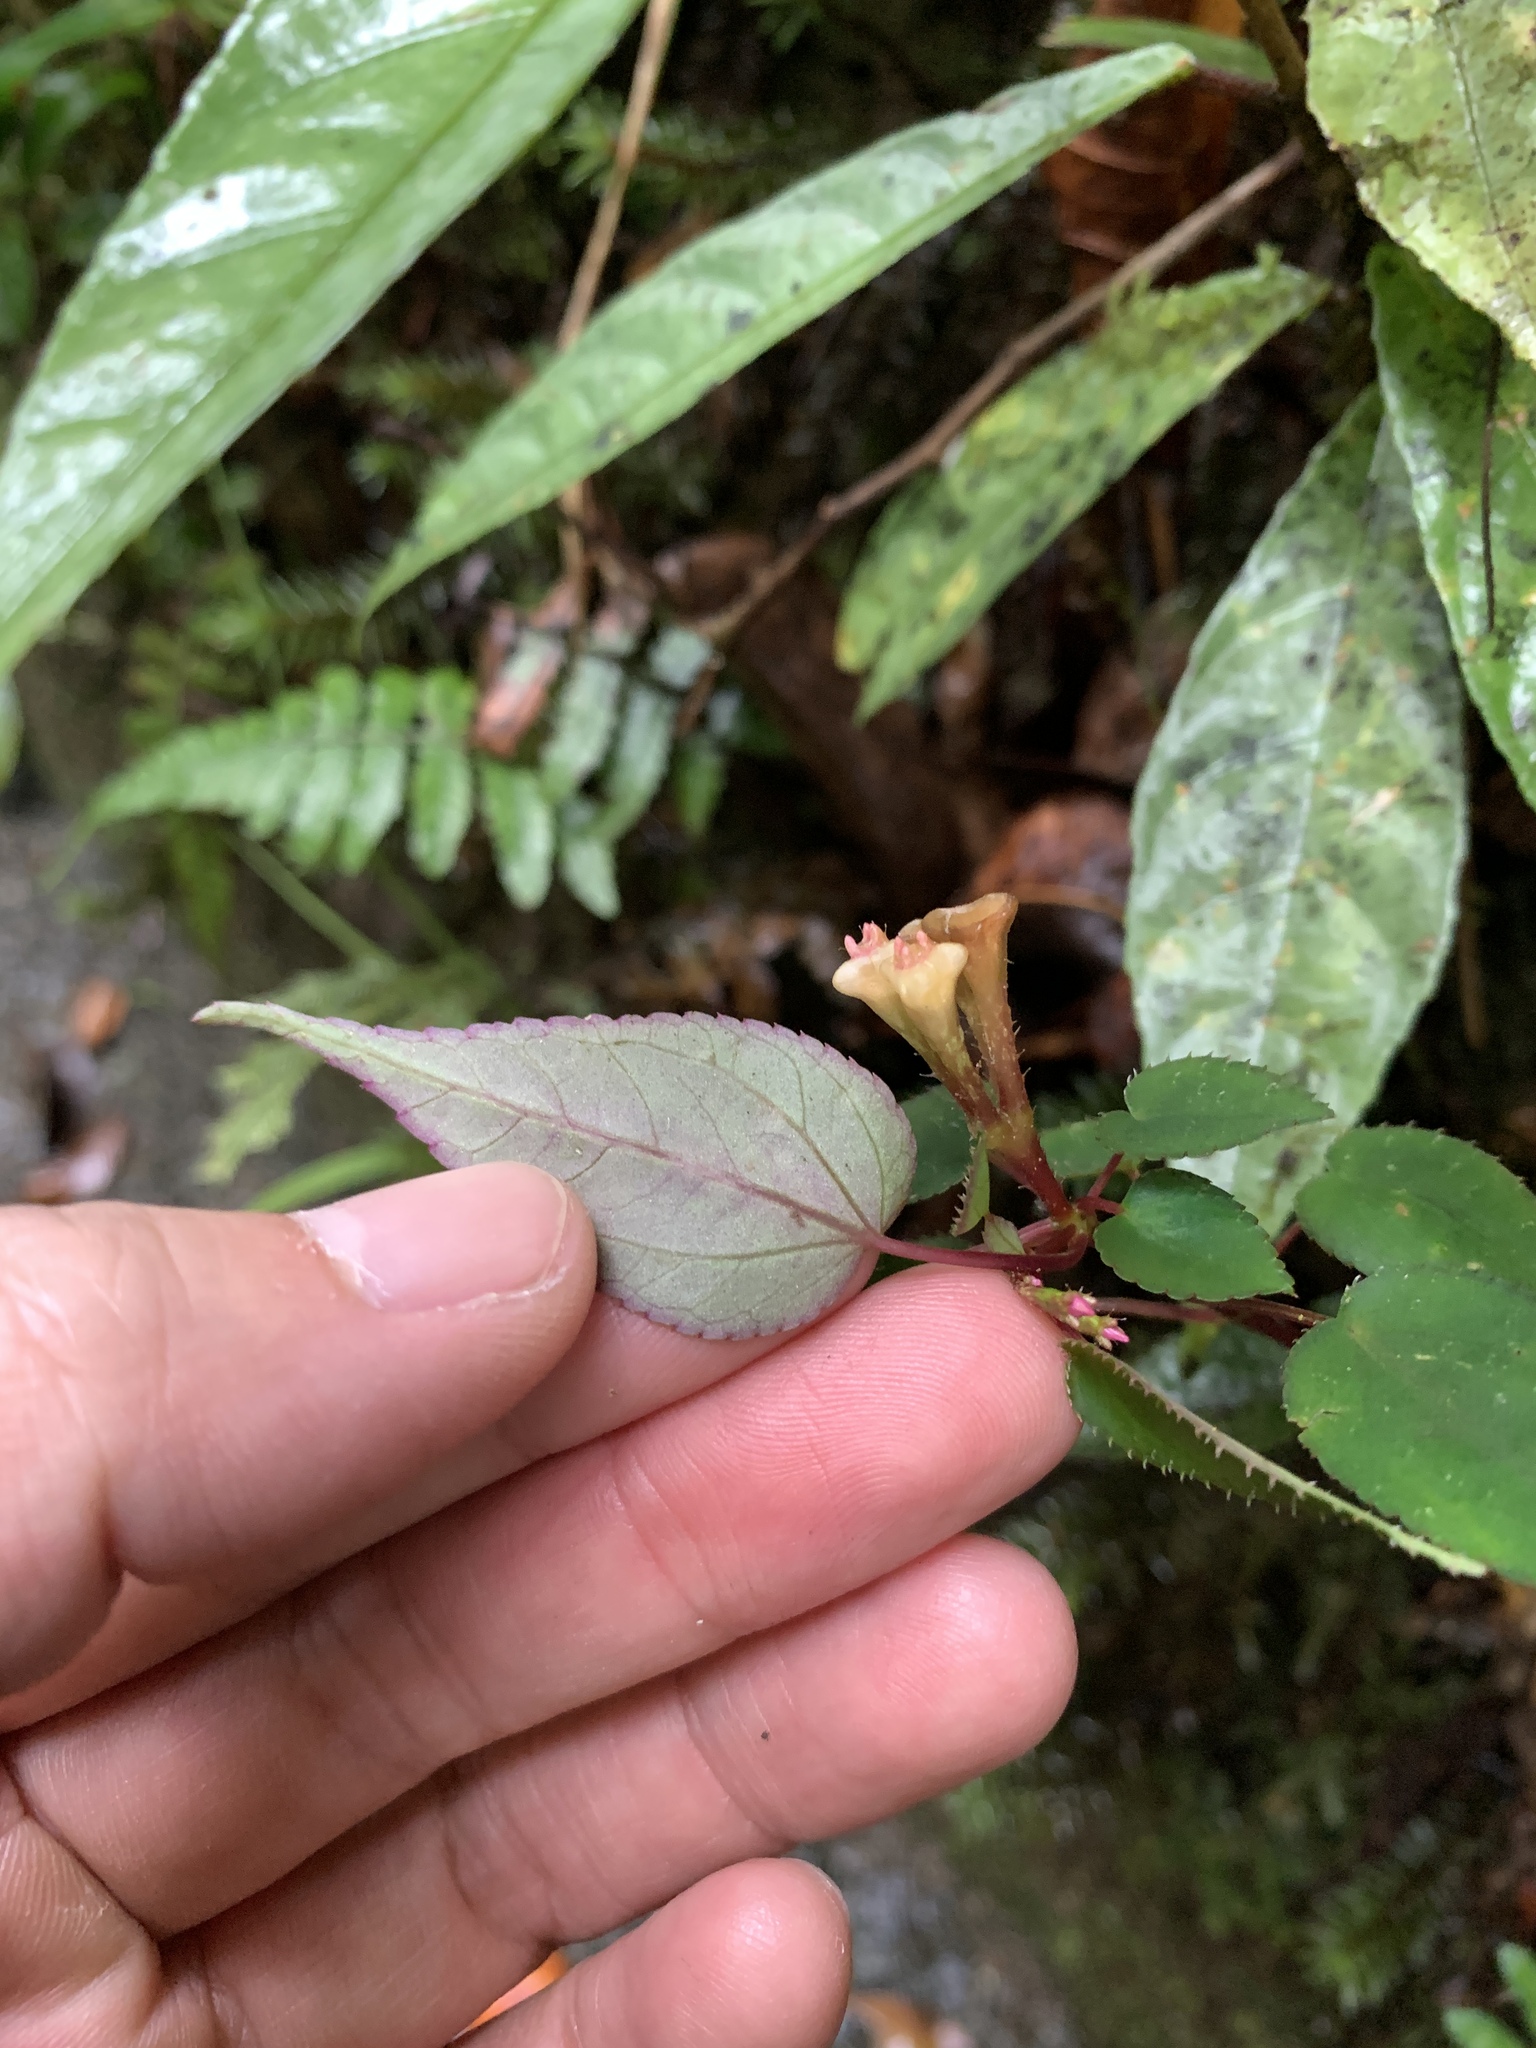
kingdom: Plantae
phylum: Tracheophyta
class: Magnoliopsida
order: Myrtales
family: Melastomataceae
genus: Sonerila
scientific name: Sonerila tenuifolia
